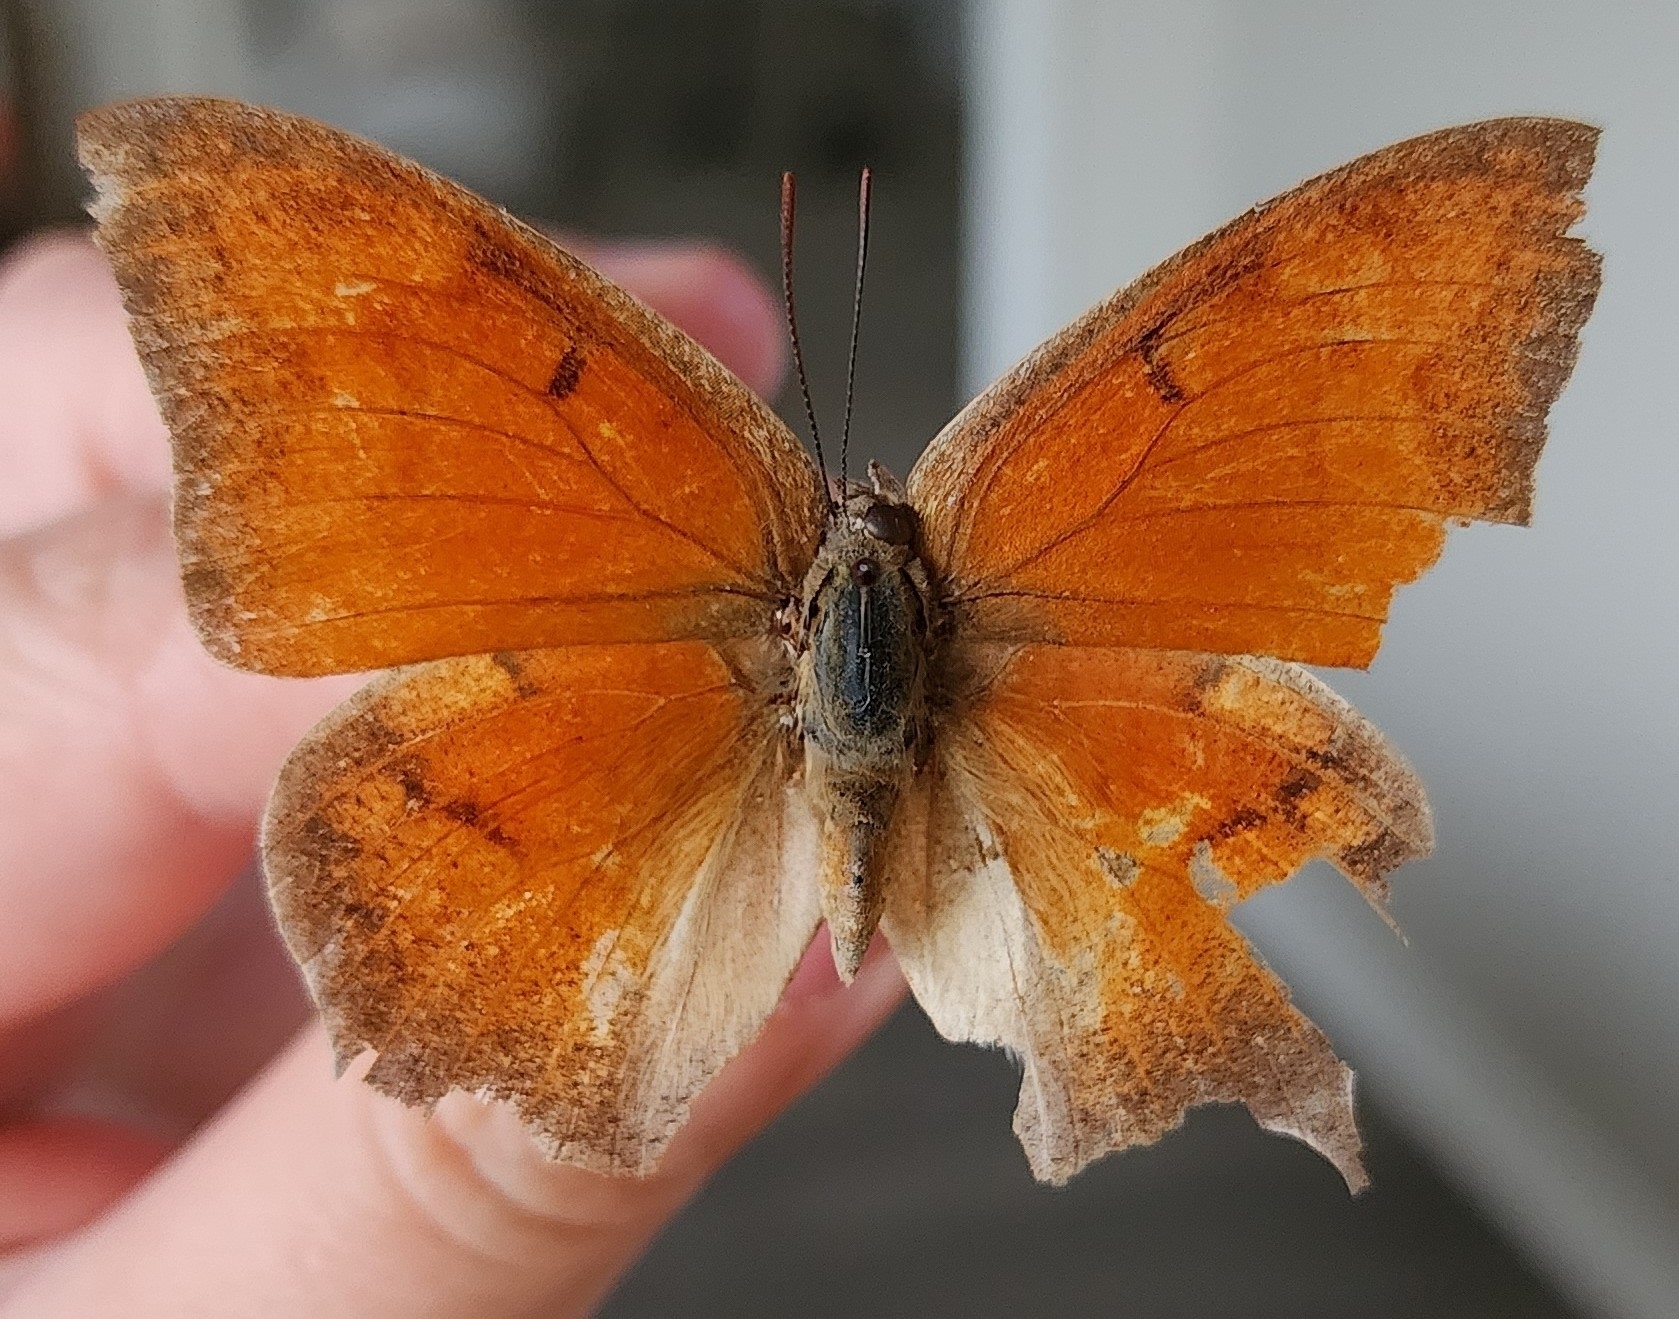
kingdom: Animalia
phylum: Arthropoda
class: Insecta
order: Lepidoptera
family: Nymphalidae
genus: Anaea
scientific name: Anaea andria
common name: Goatweed leafwing
